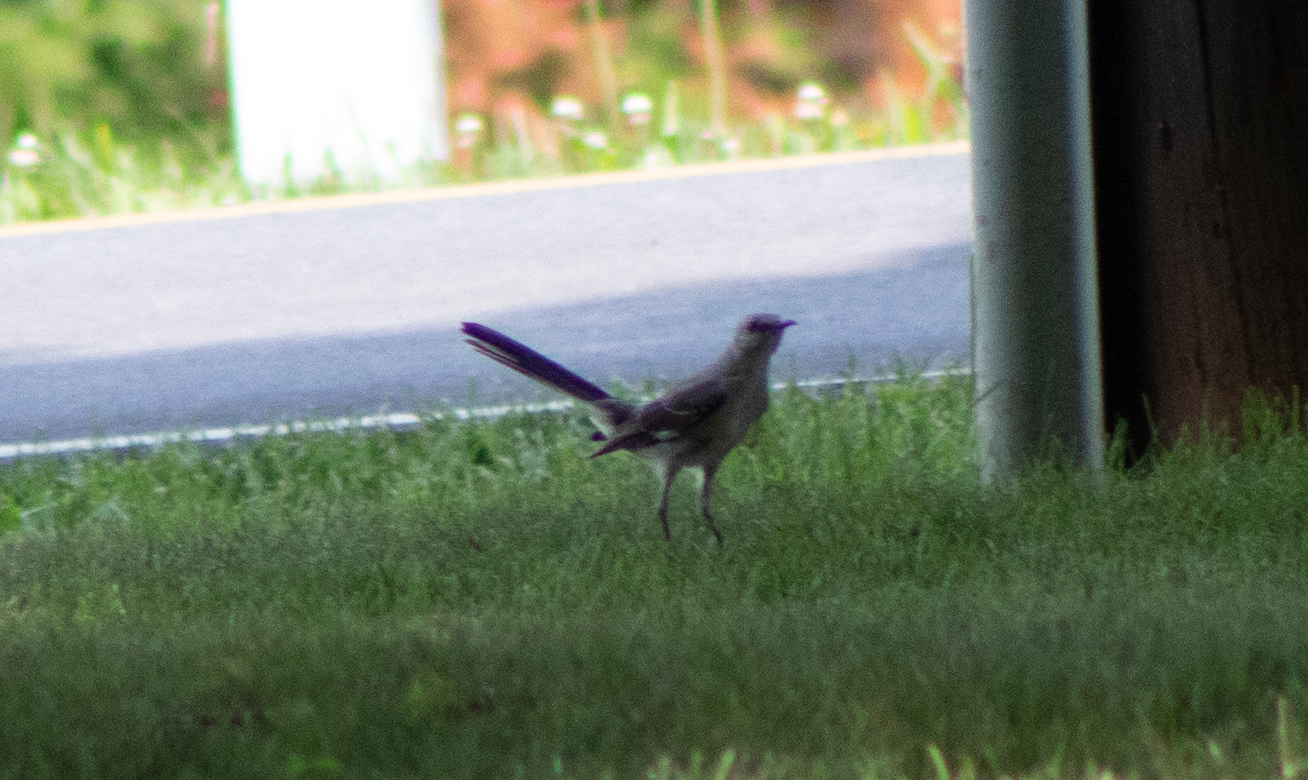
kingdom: Animalia
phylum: Chordata
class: Aves
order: Passeriformes
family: Mimidae
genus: Mimus
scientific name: Mimus polyglottos
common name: Northern mockingbird
